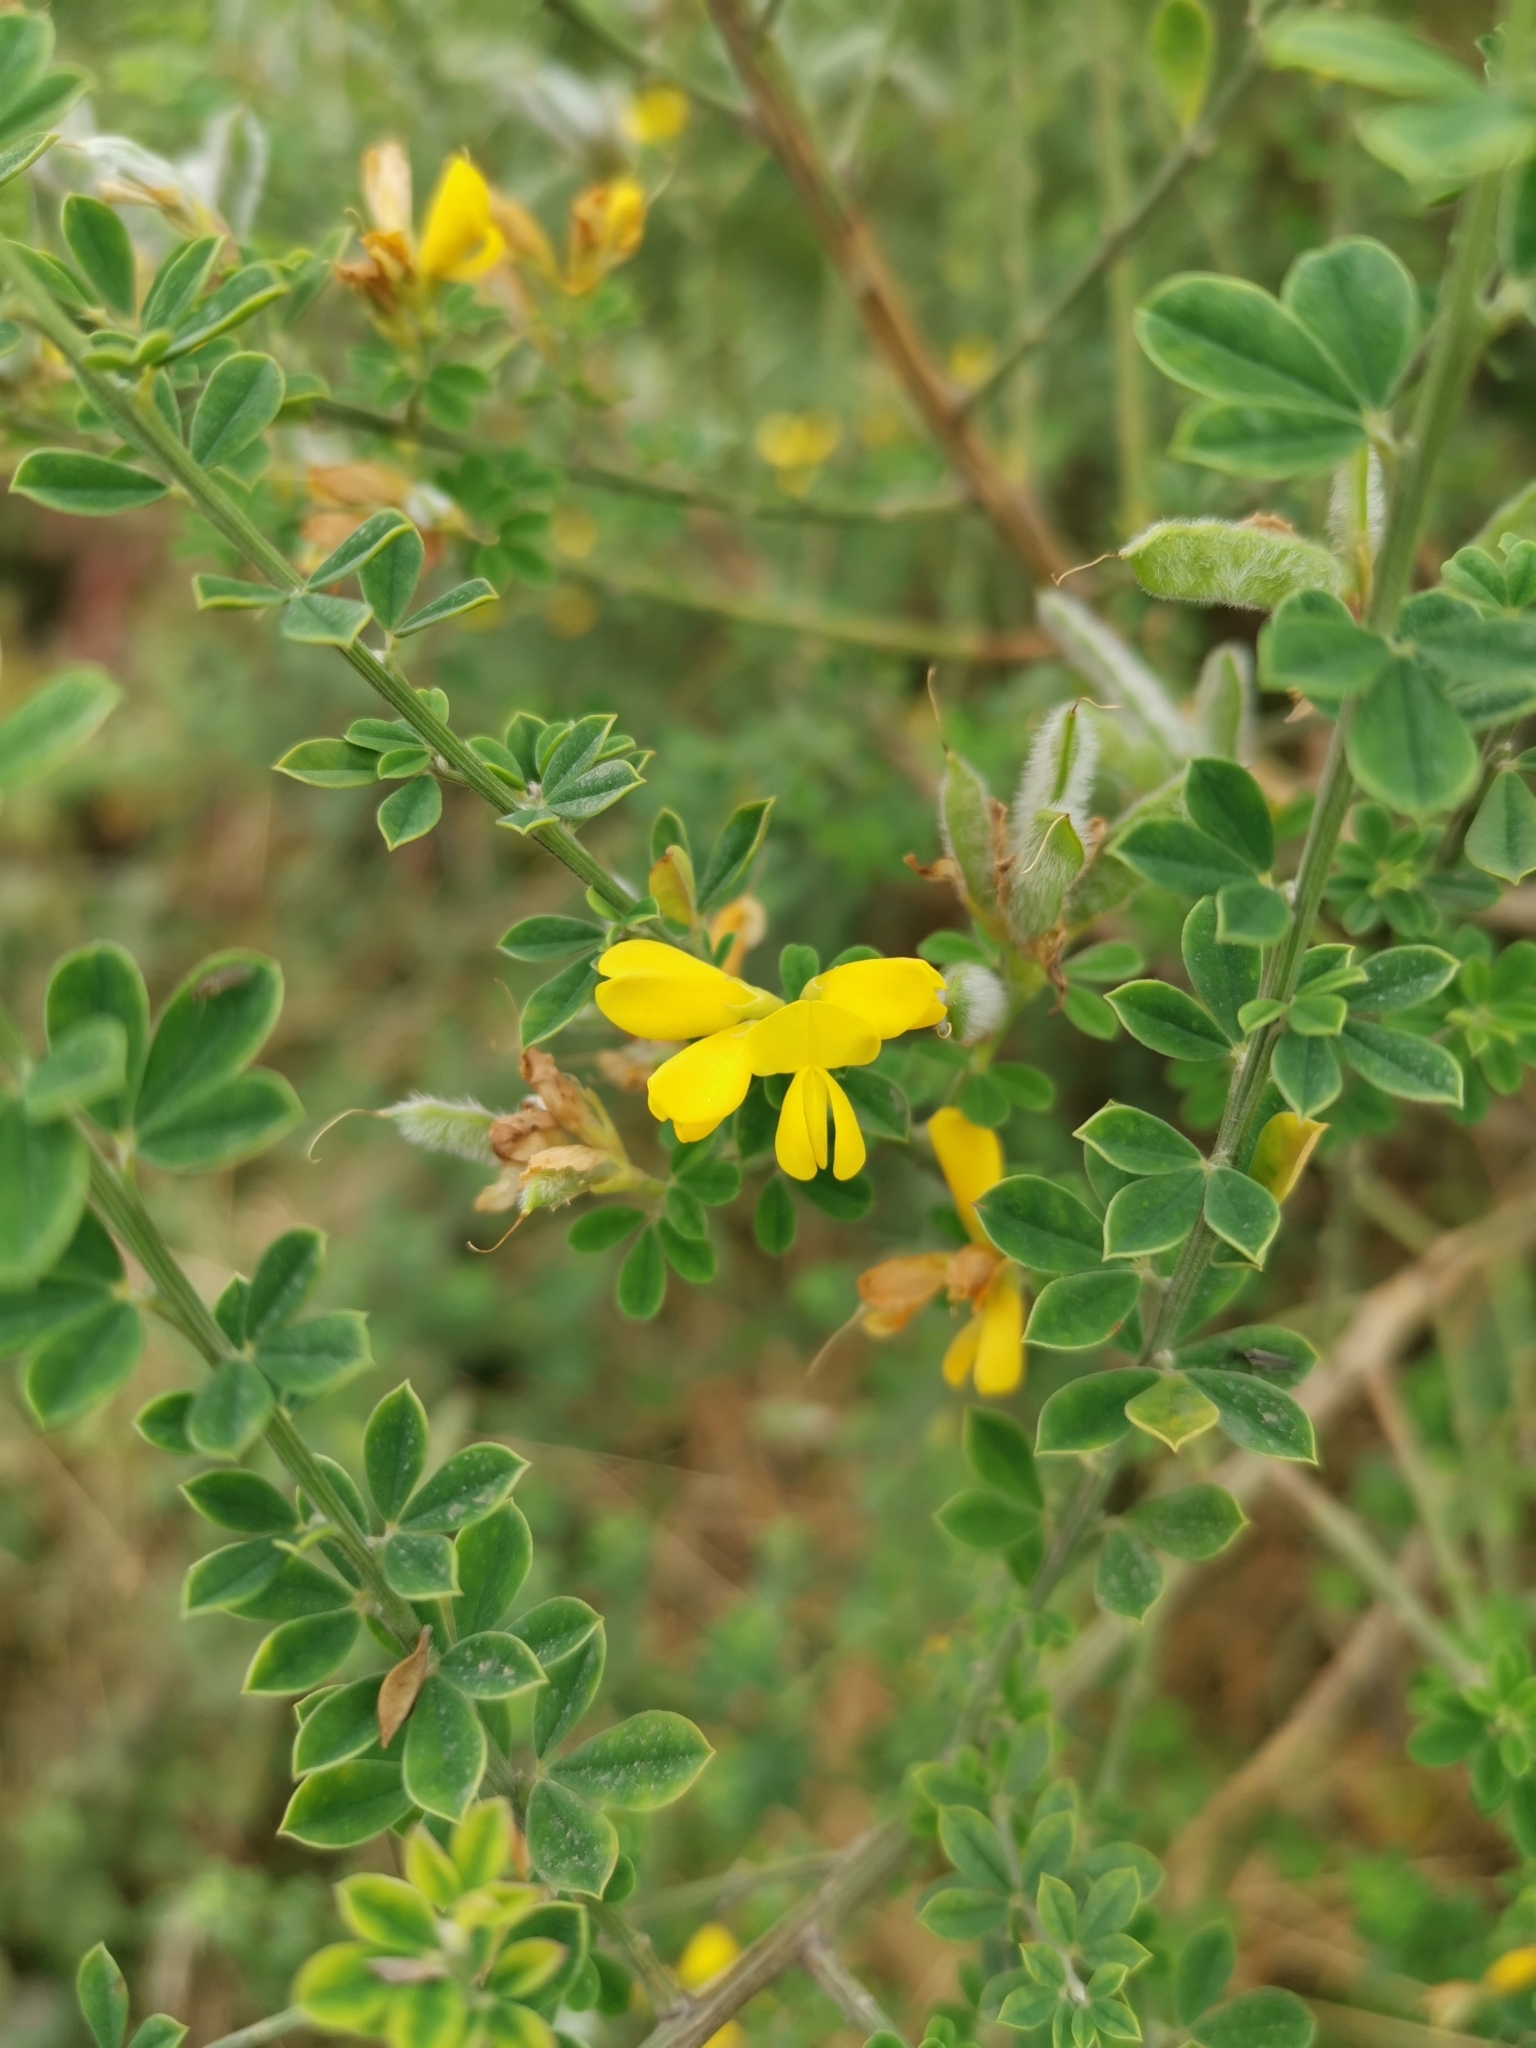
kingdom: Plantae
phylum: Tracheophyta
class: Magnoliopsida
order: Fabales
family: Fabaceae
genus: Genista
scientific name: Genista monspessulana
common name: Montpellier broom
